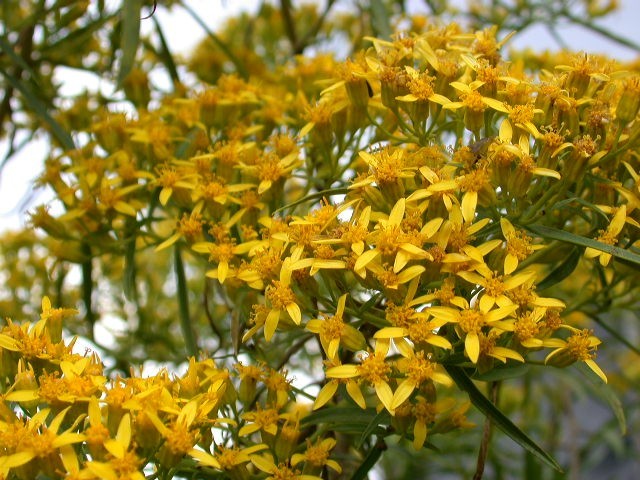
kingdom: Plantae
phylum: Tracheophyta
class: Magnoliopsida
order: Asterales
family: Asteraceae
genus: Barkleyanthus
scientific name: Barkleyanthus salicifolius
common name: Willow ragwort
